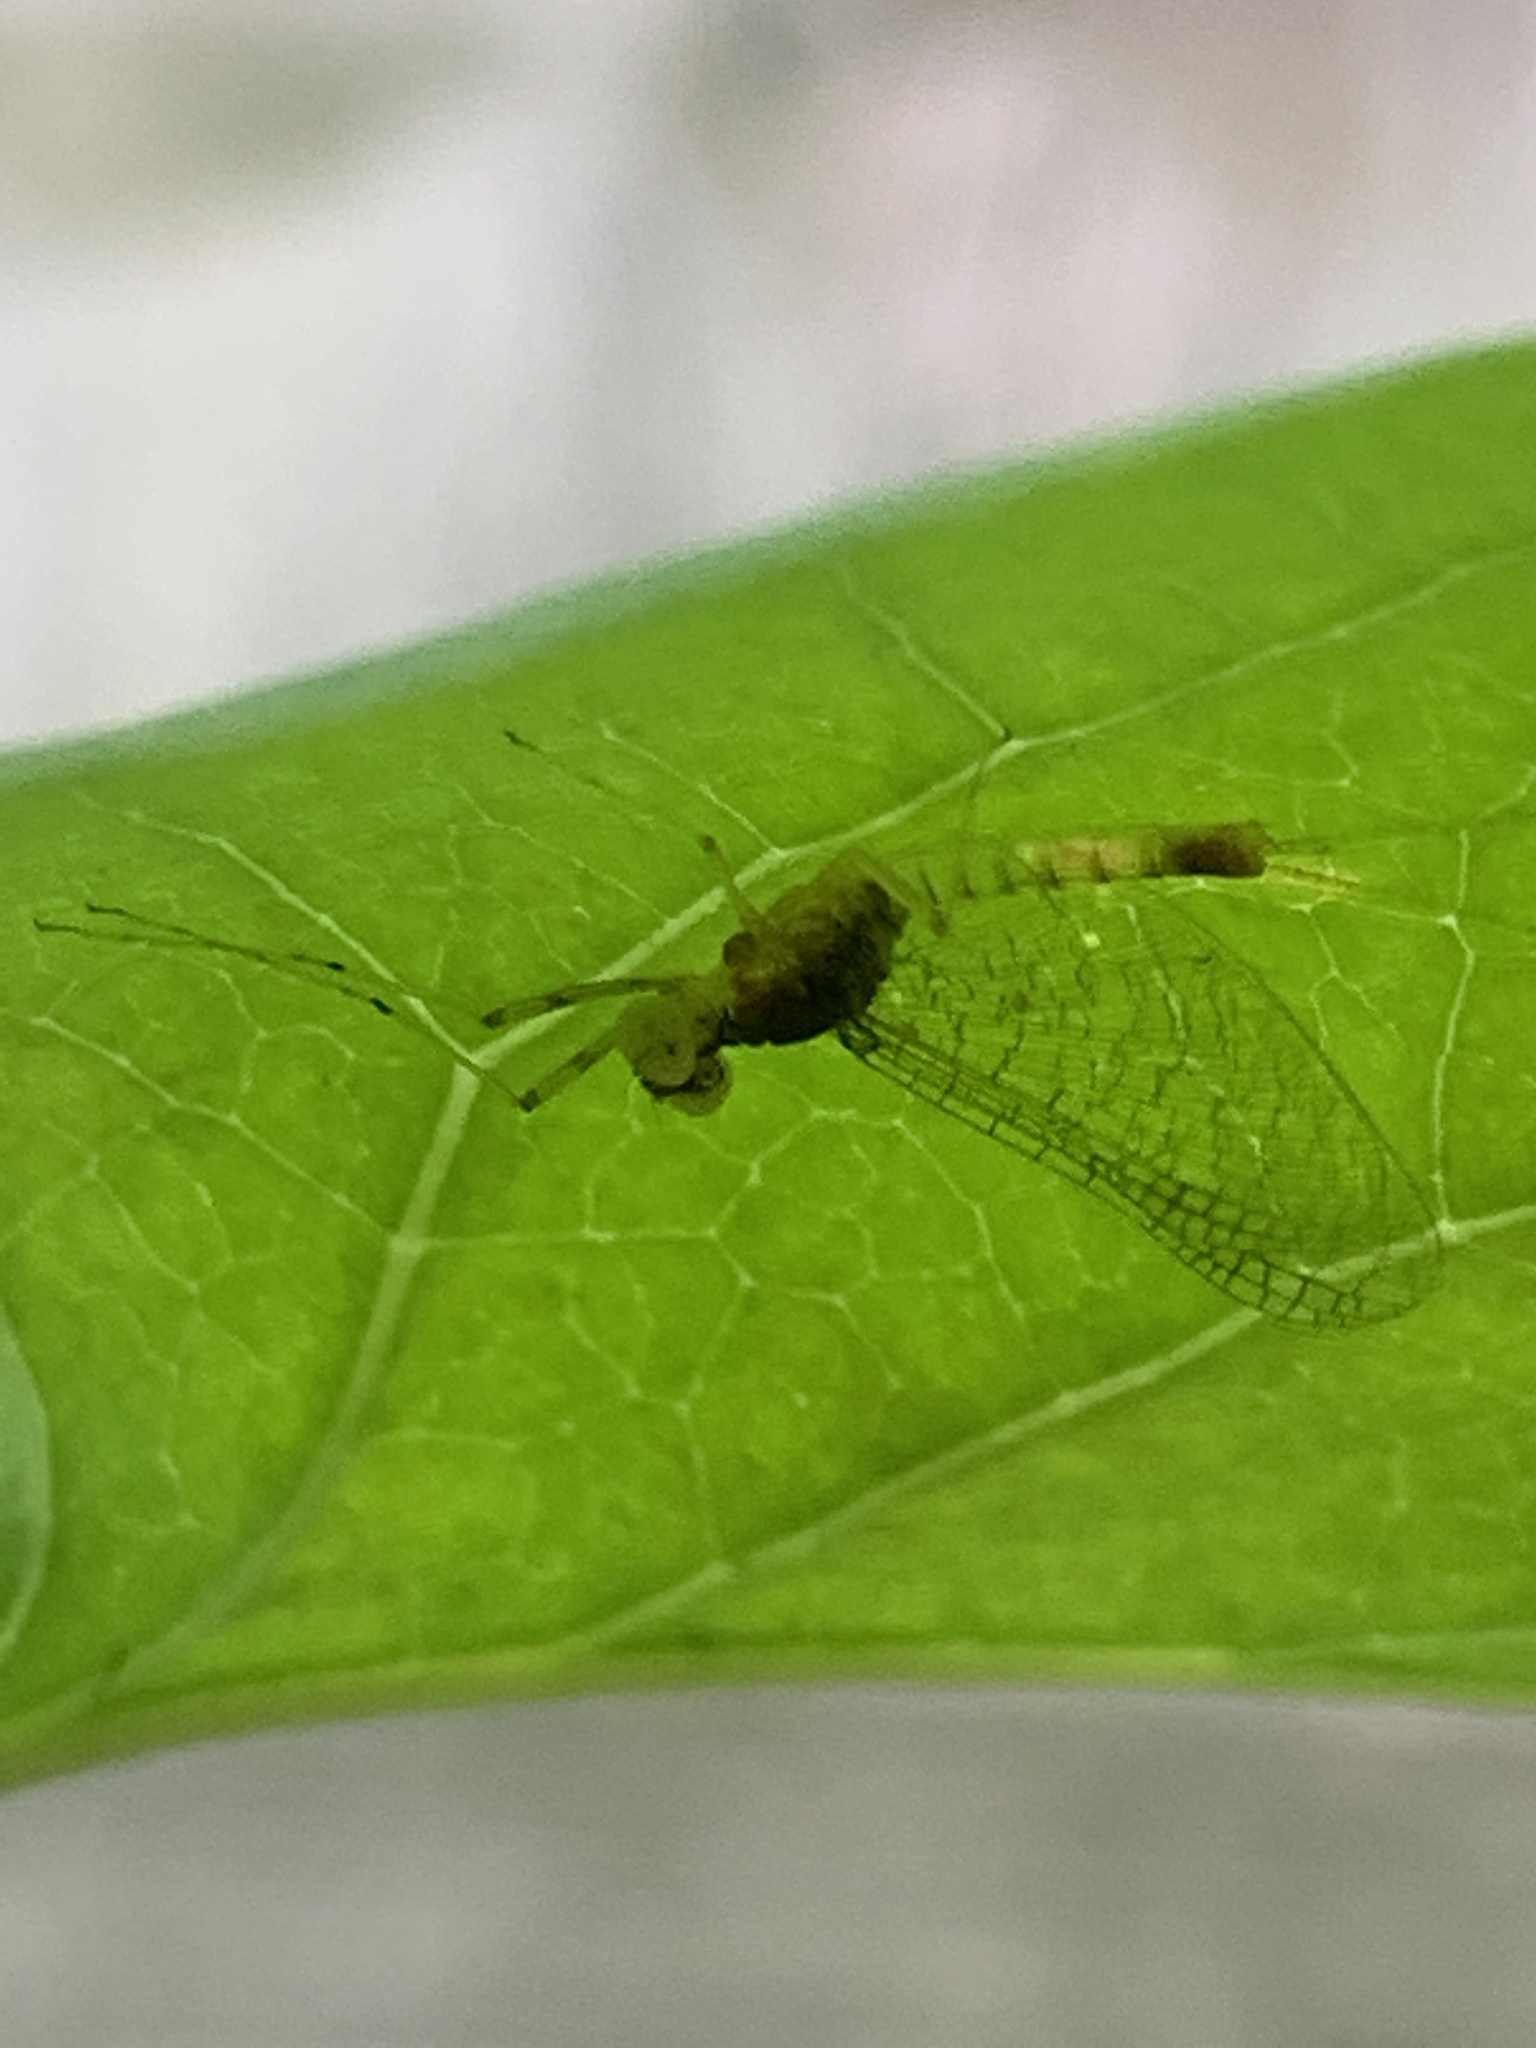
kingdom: Animalia
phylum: Arthropoda
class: Insecta
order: Ephemeroptera
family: Heptageniidae
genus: Maccaffertium
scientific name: Maccaffertium terminatum
